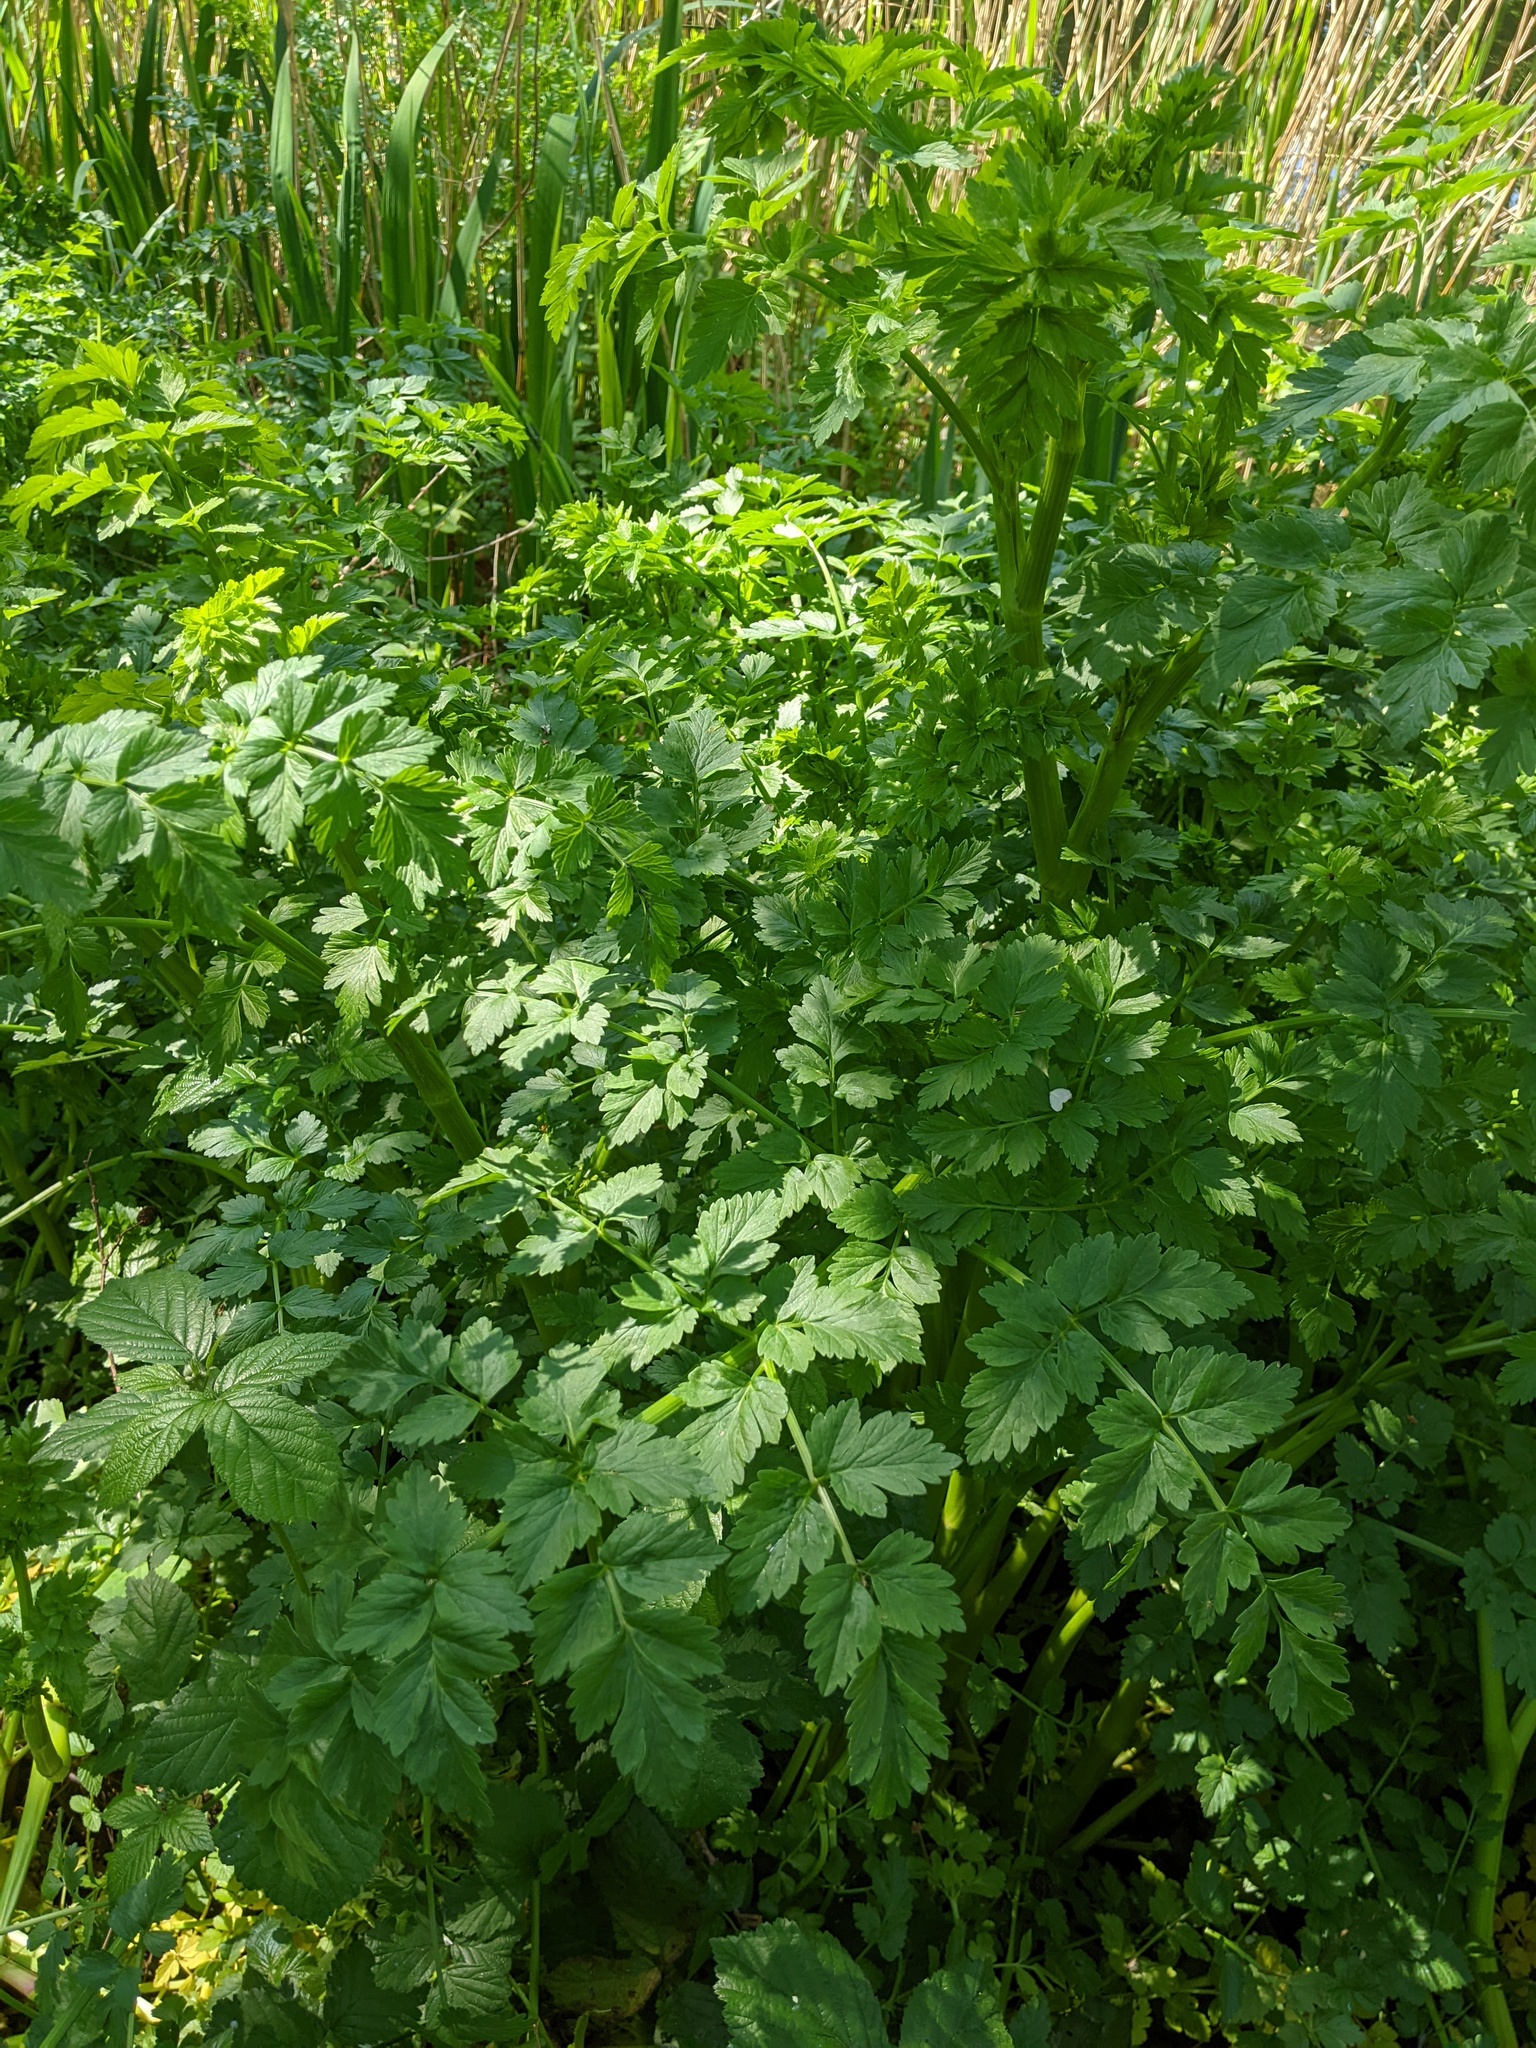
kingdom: Plantae
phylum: Tracheophyta
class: Magnoliopsida
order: Apiales
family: Apiaceae
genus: Oenanthe
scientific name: Oenanthe crocata
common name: Hemlock water-dropwort
